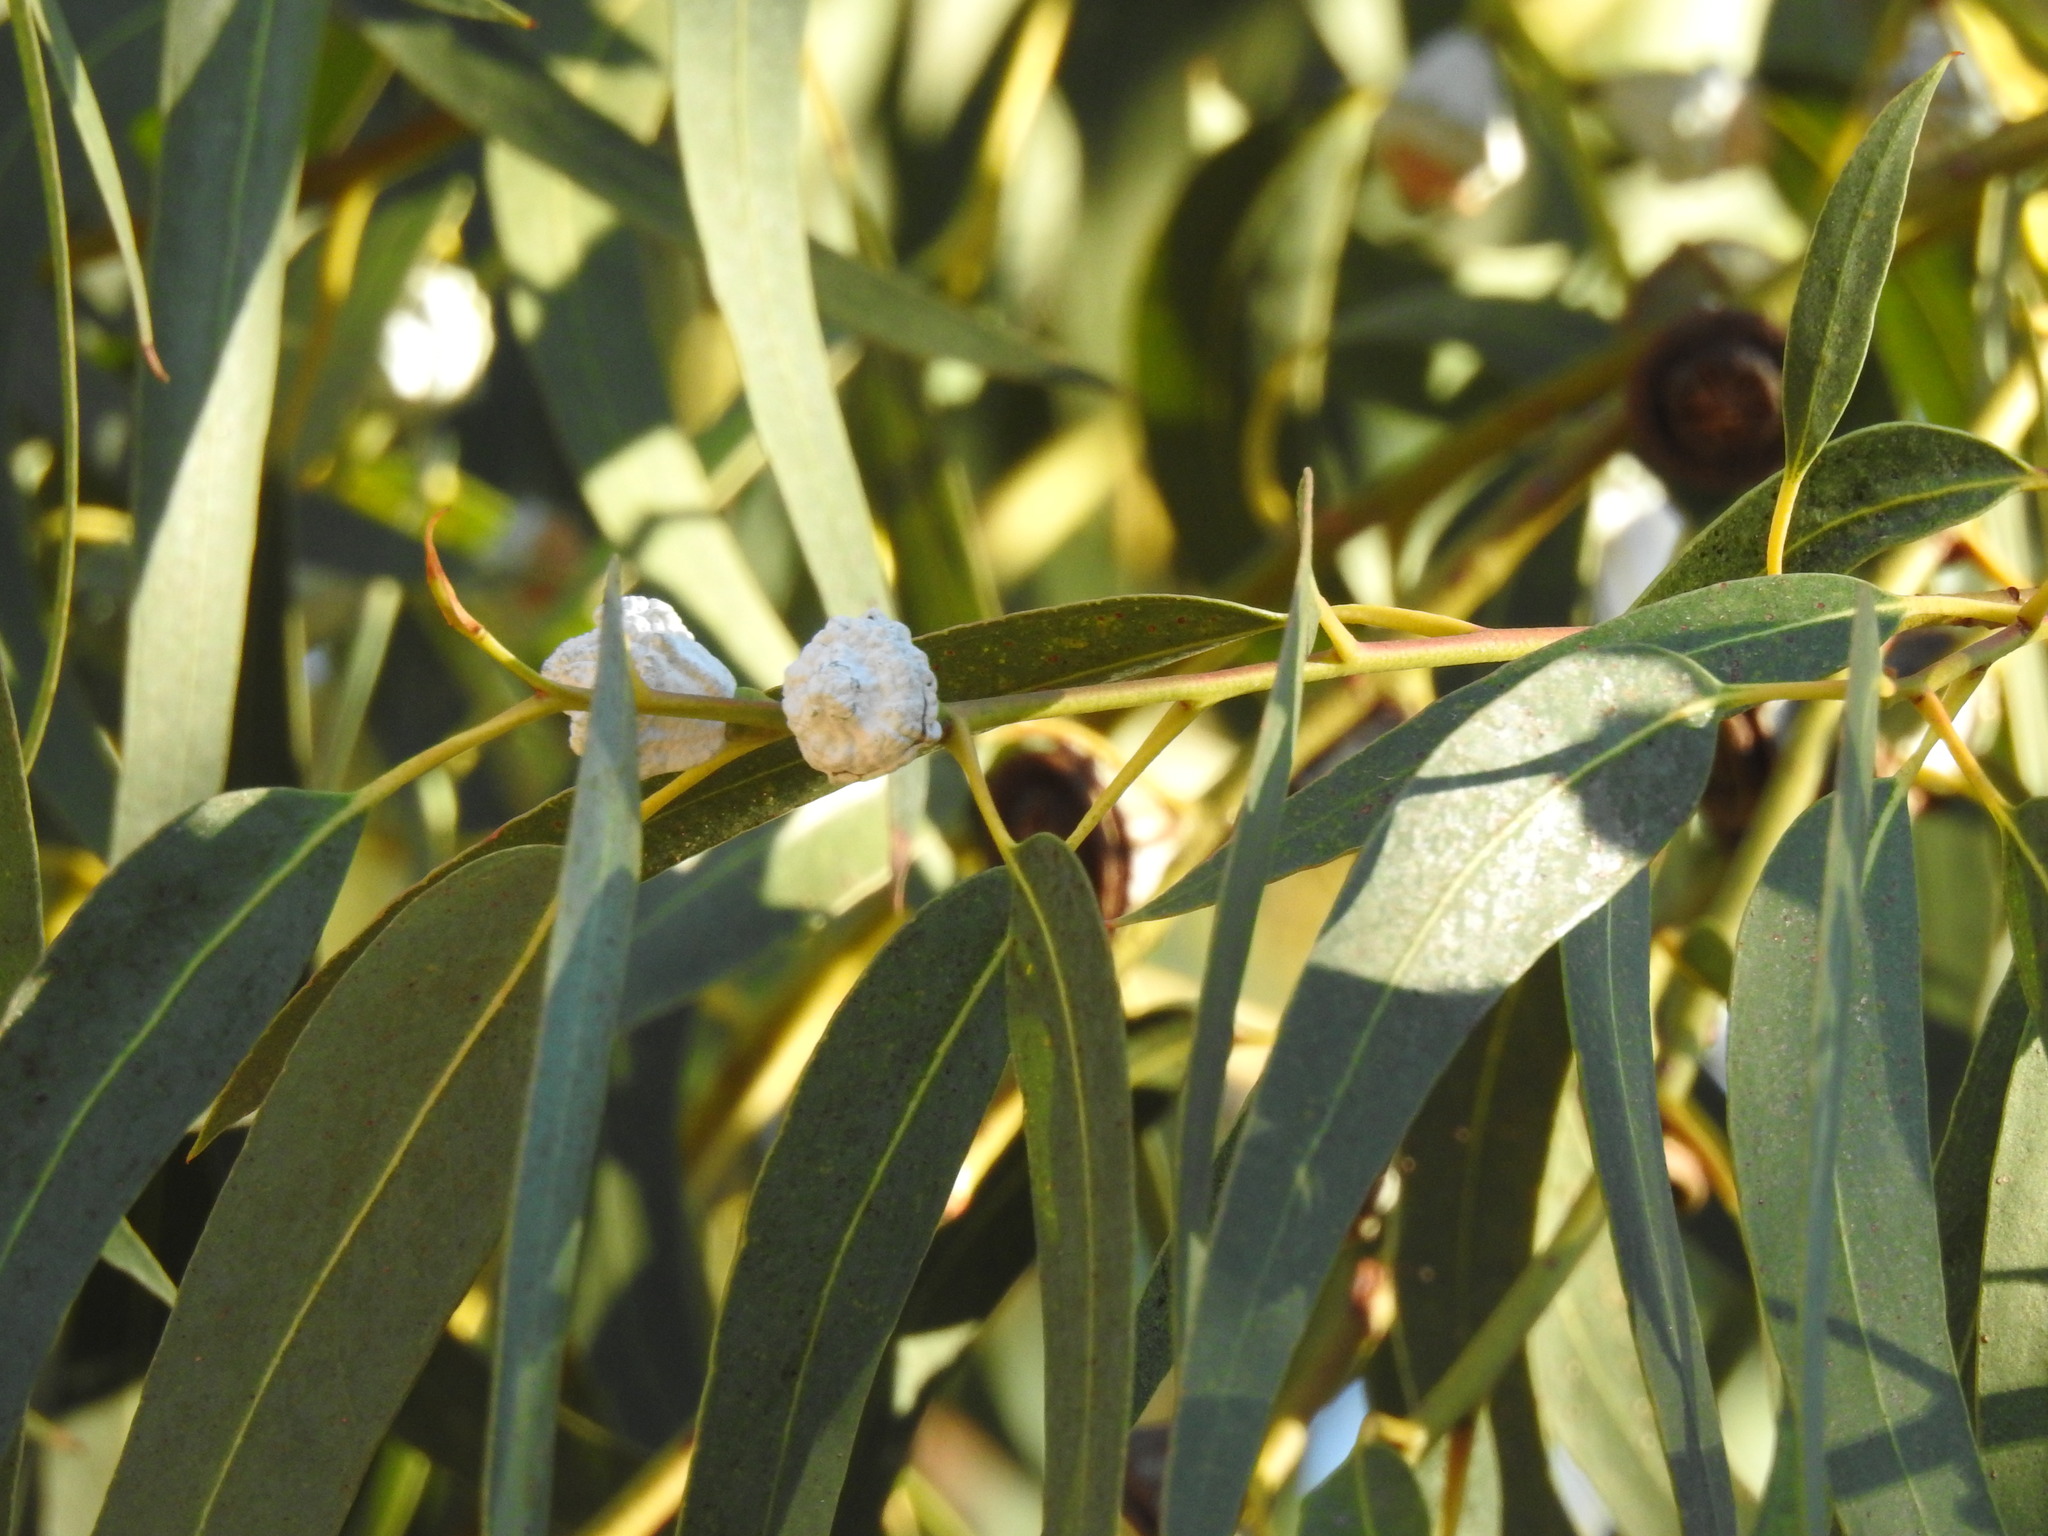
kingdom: Plantae
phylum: Tracheophyta
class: Magnoliopsida
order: Myrtales
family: Myrtaceae
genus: Eucalyptus
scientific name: Eucalyptus globulus
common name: Southern blue-gum
